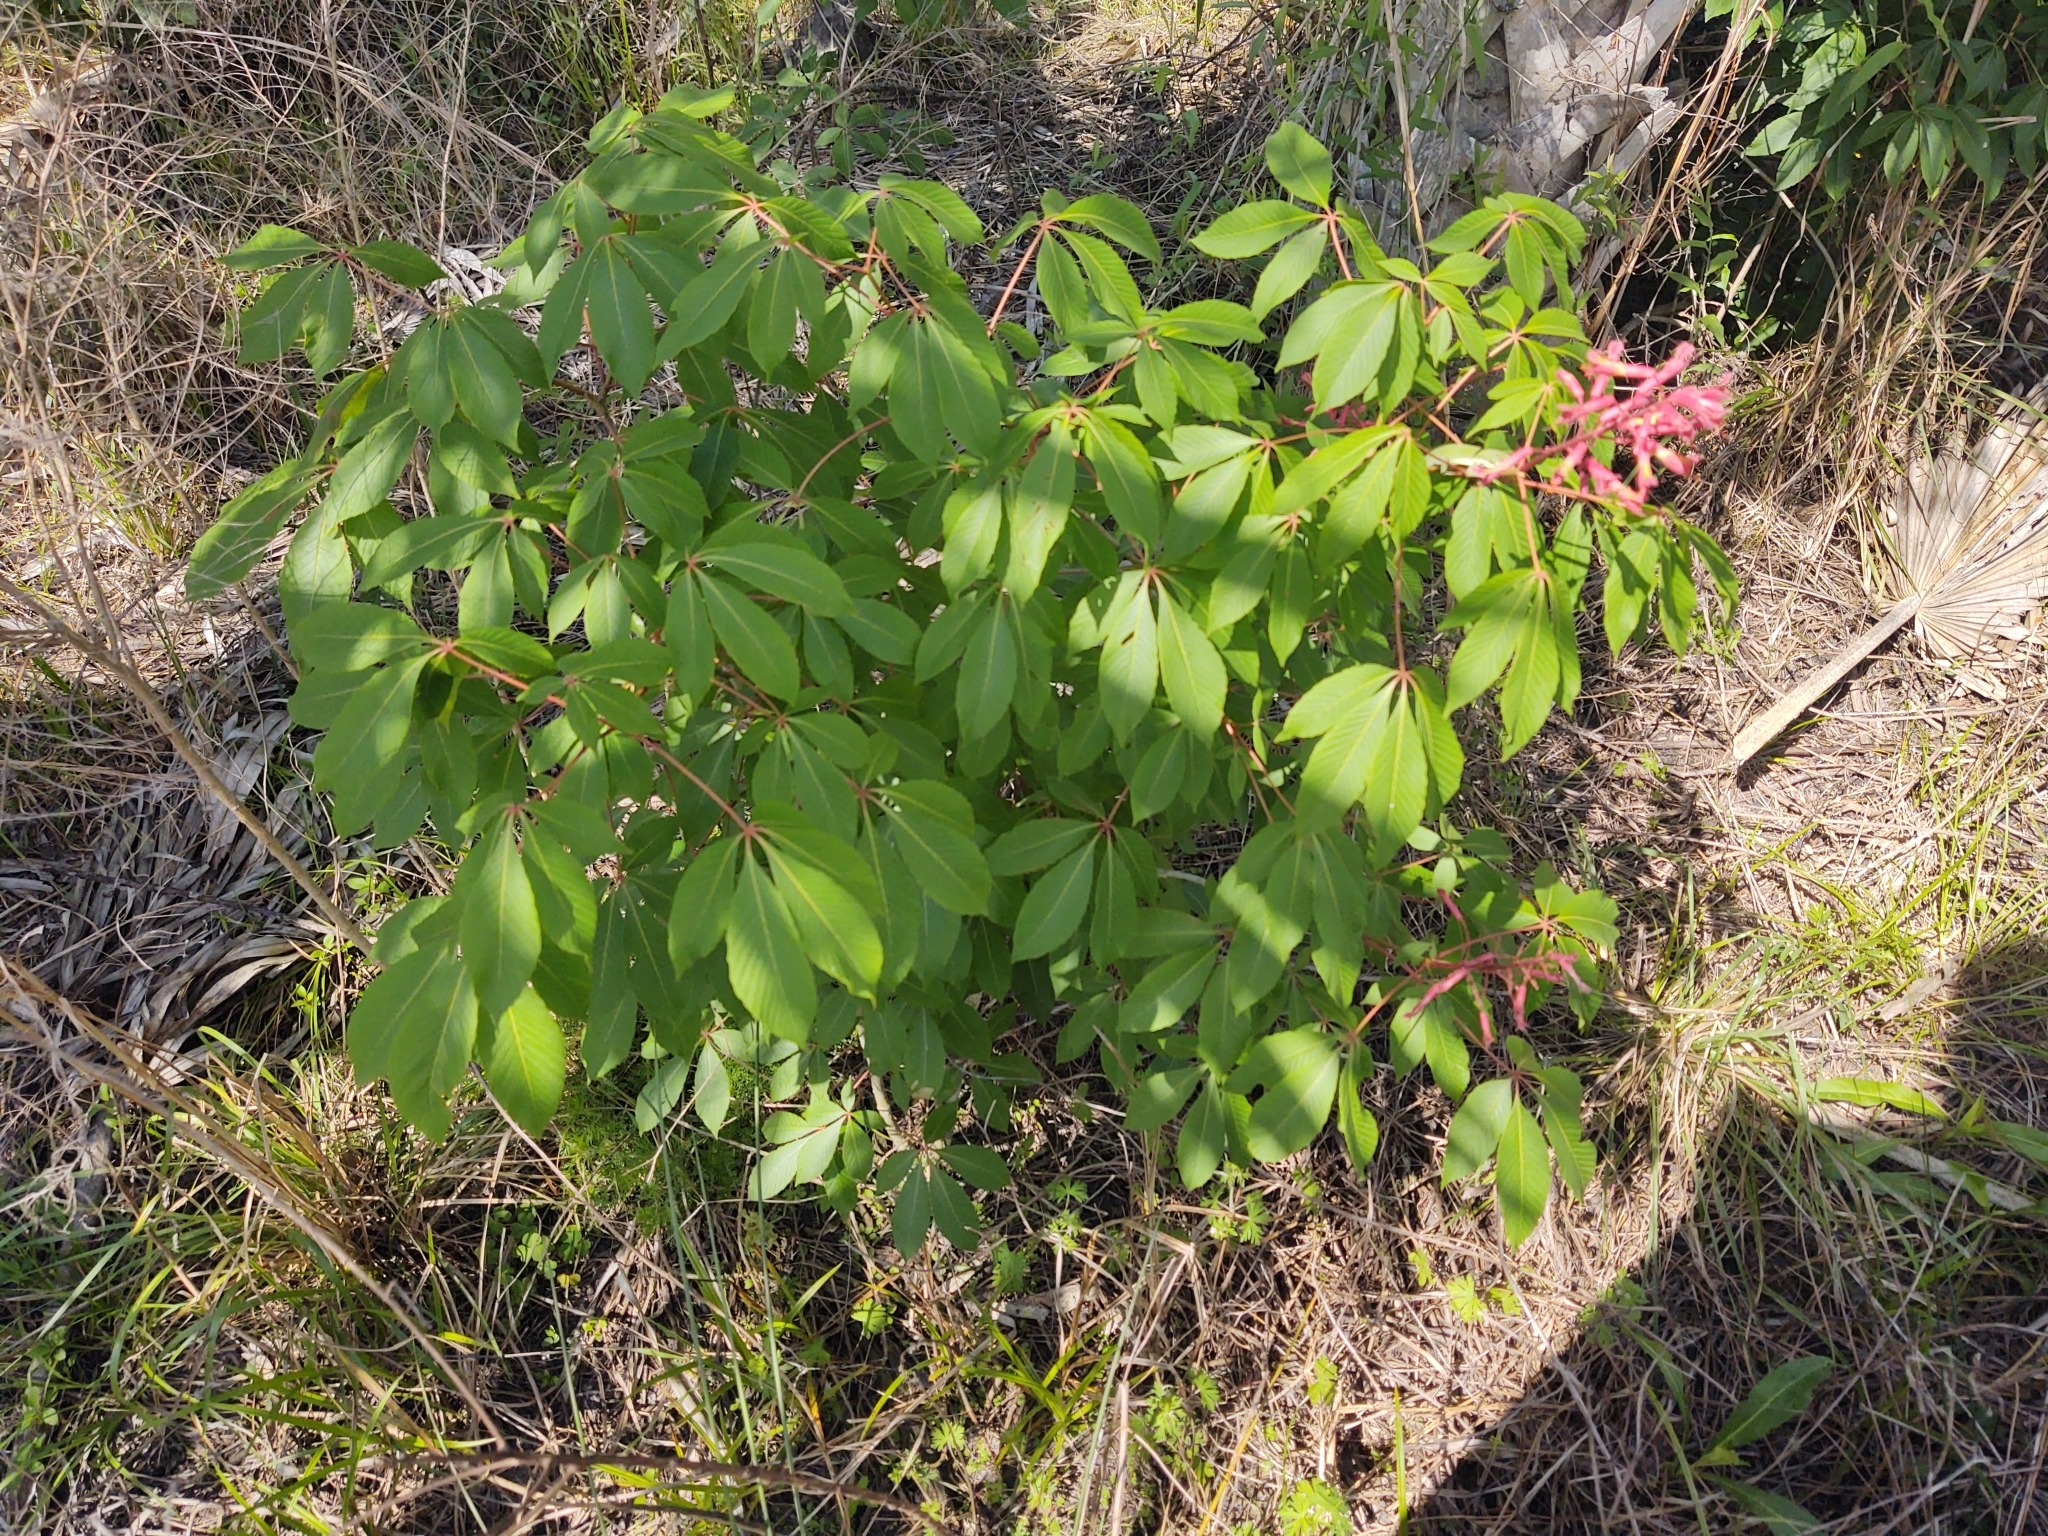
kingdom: Plantae
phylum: Tracheophyta
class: Magnoliopsida
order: Sapindales
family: Sapindaceae
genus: Aesculus
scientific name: Aesculus pavia
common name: Red buckeye
